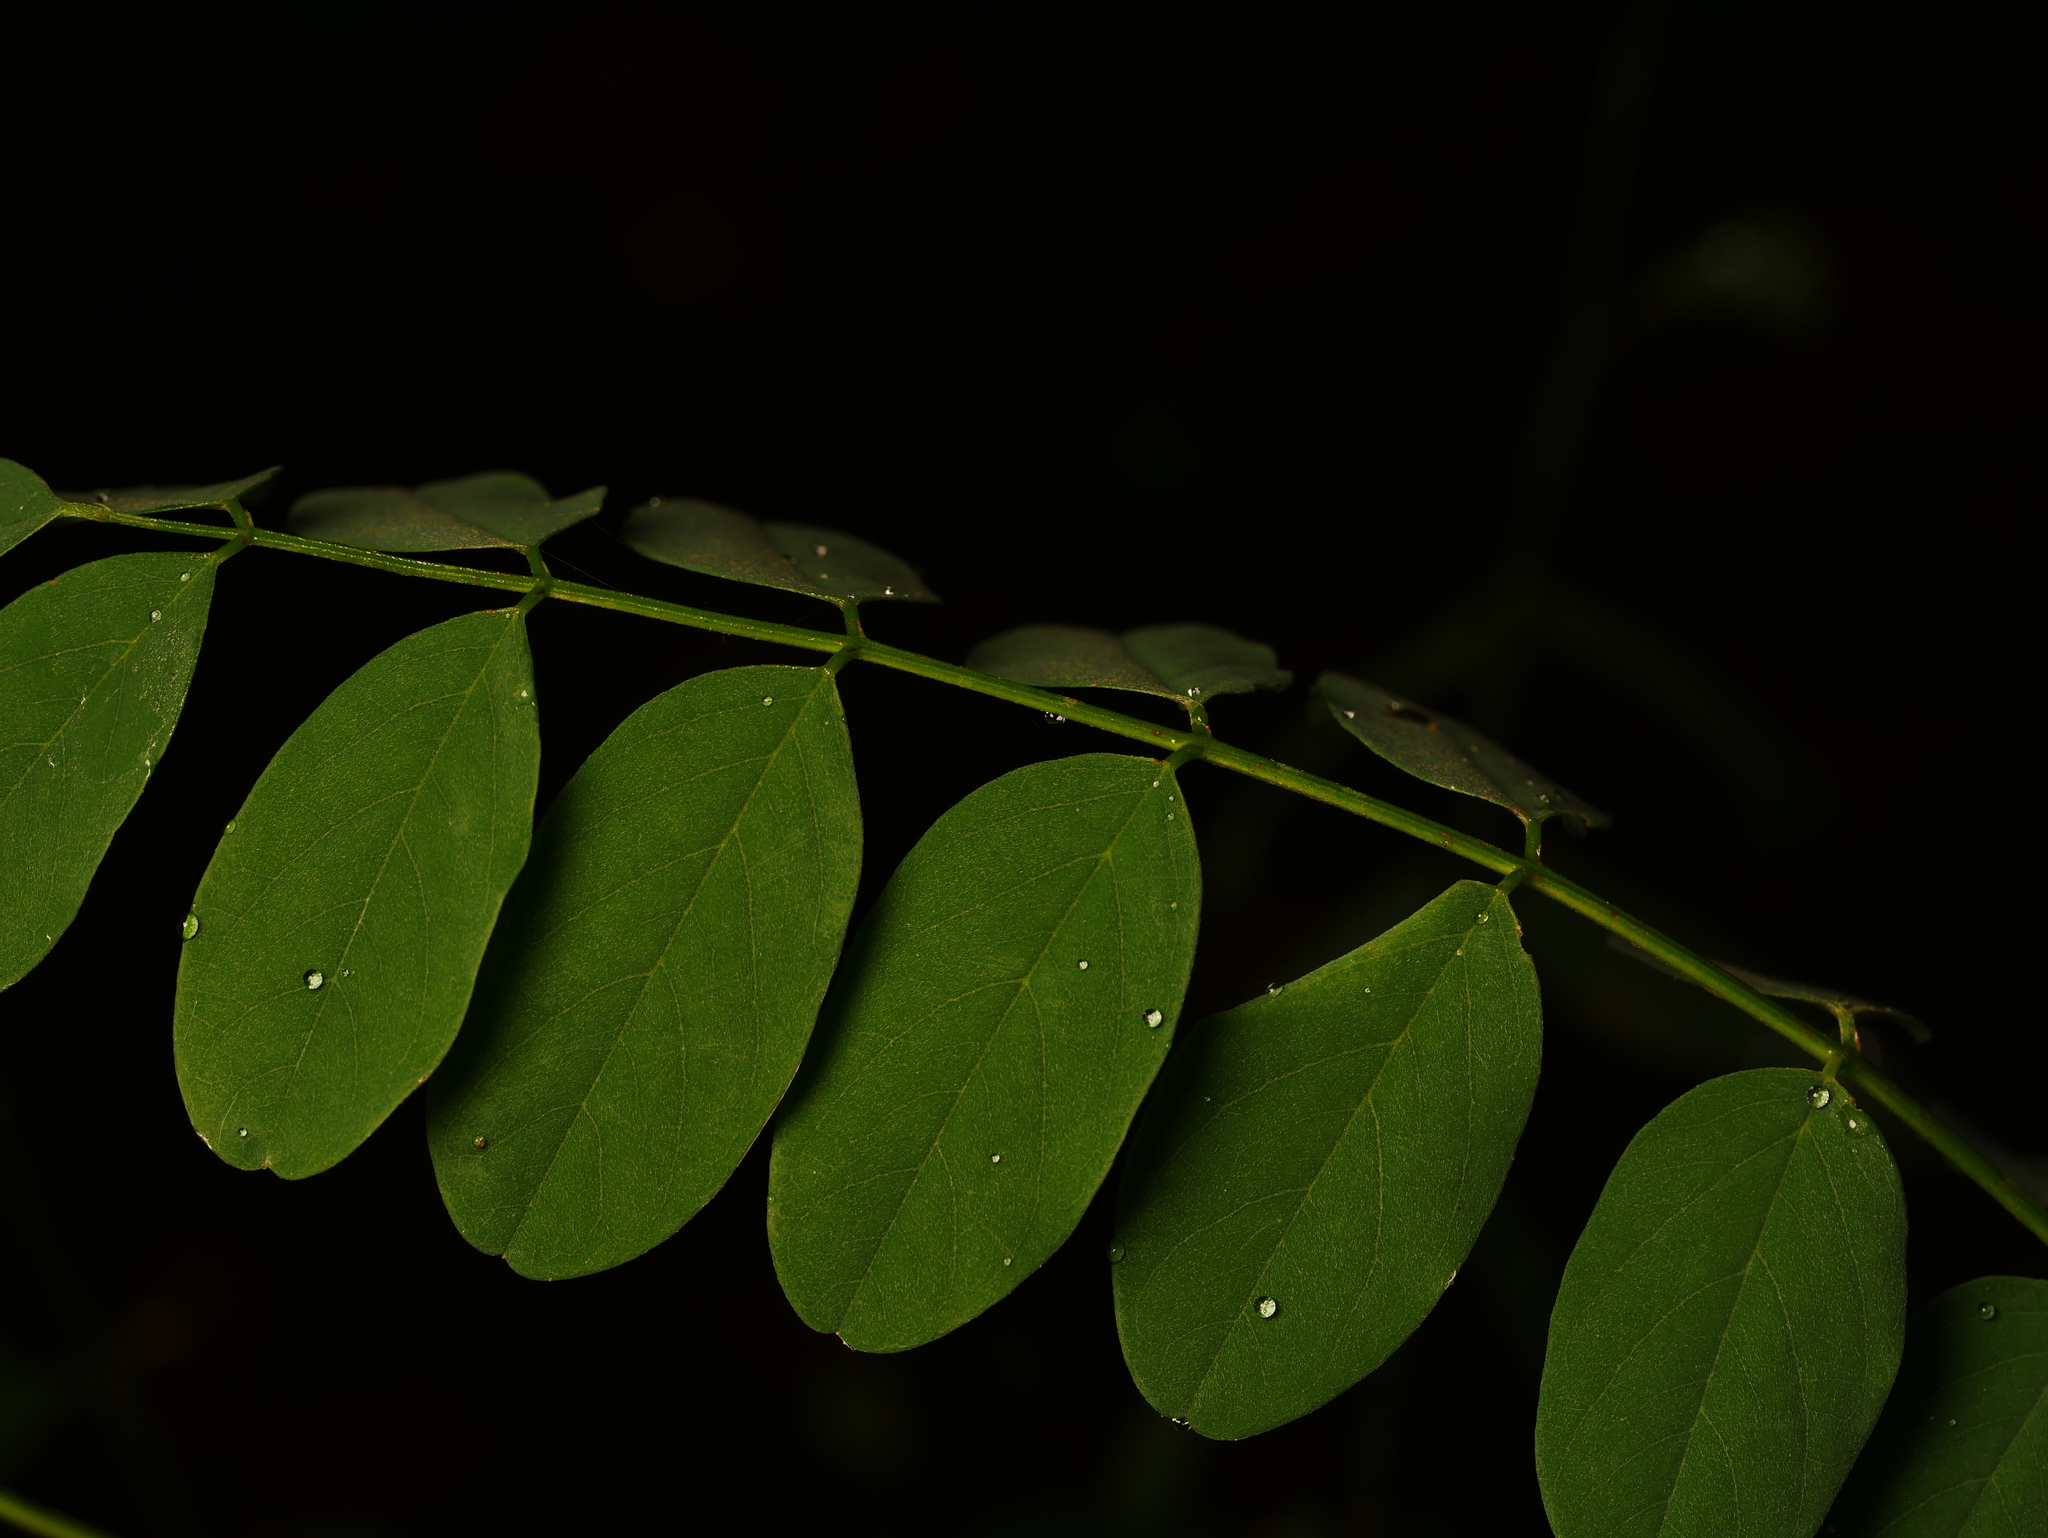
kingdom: Plantae
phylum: Tracheophyta
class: Magnoliopsida
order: Fabales
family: Fabaceae
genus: Robinia
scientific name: Robinia pseudoacacia
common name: Black locust
